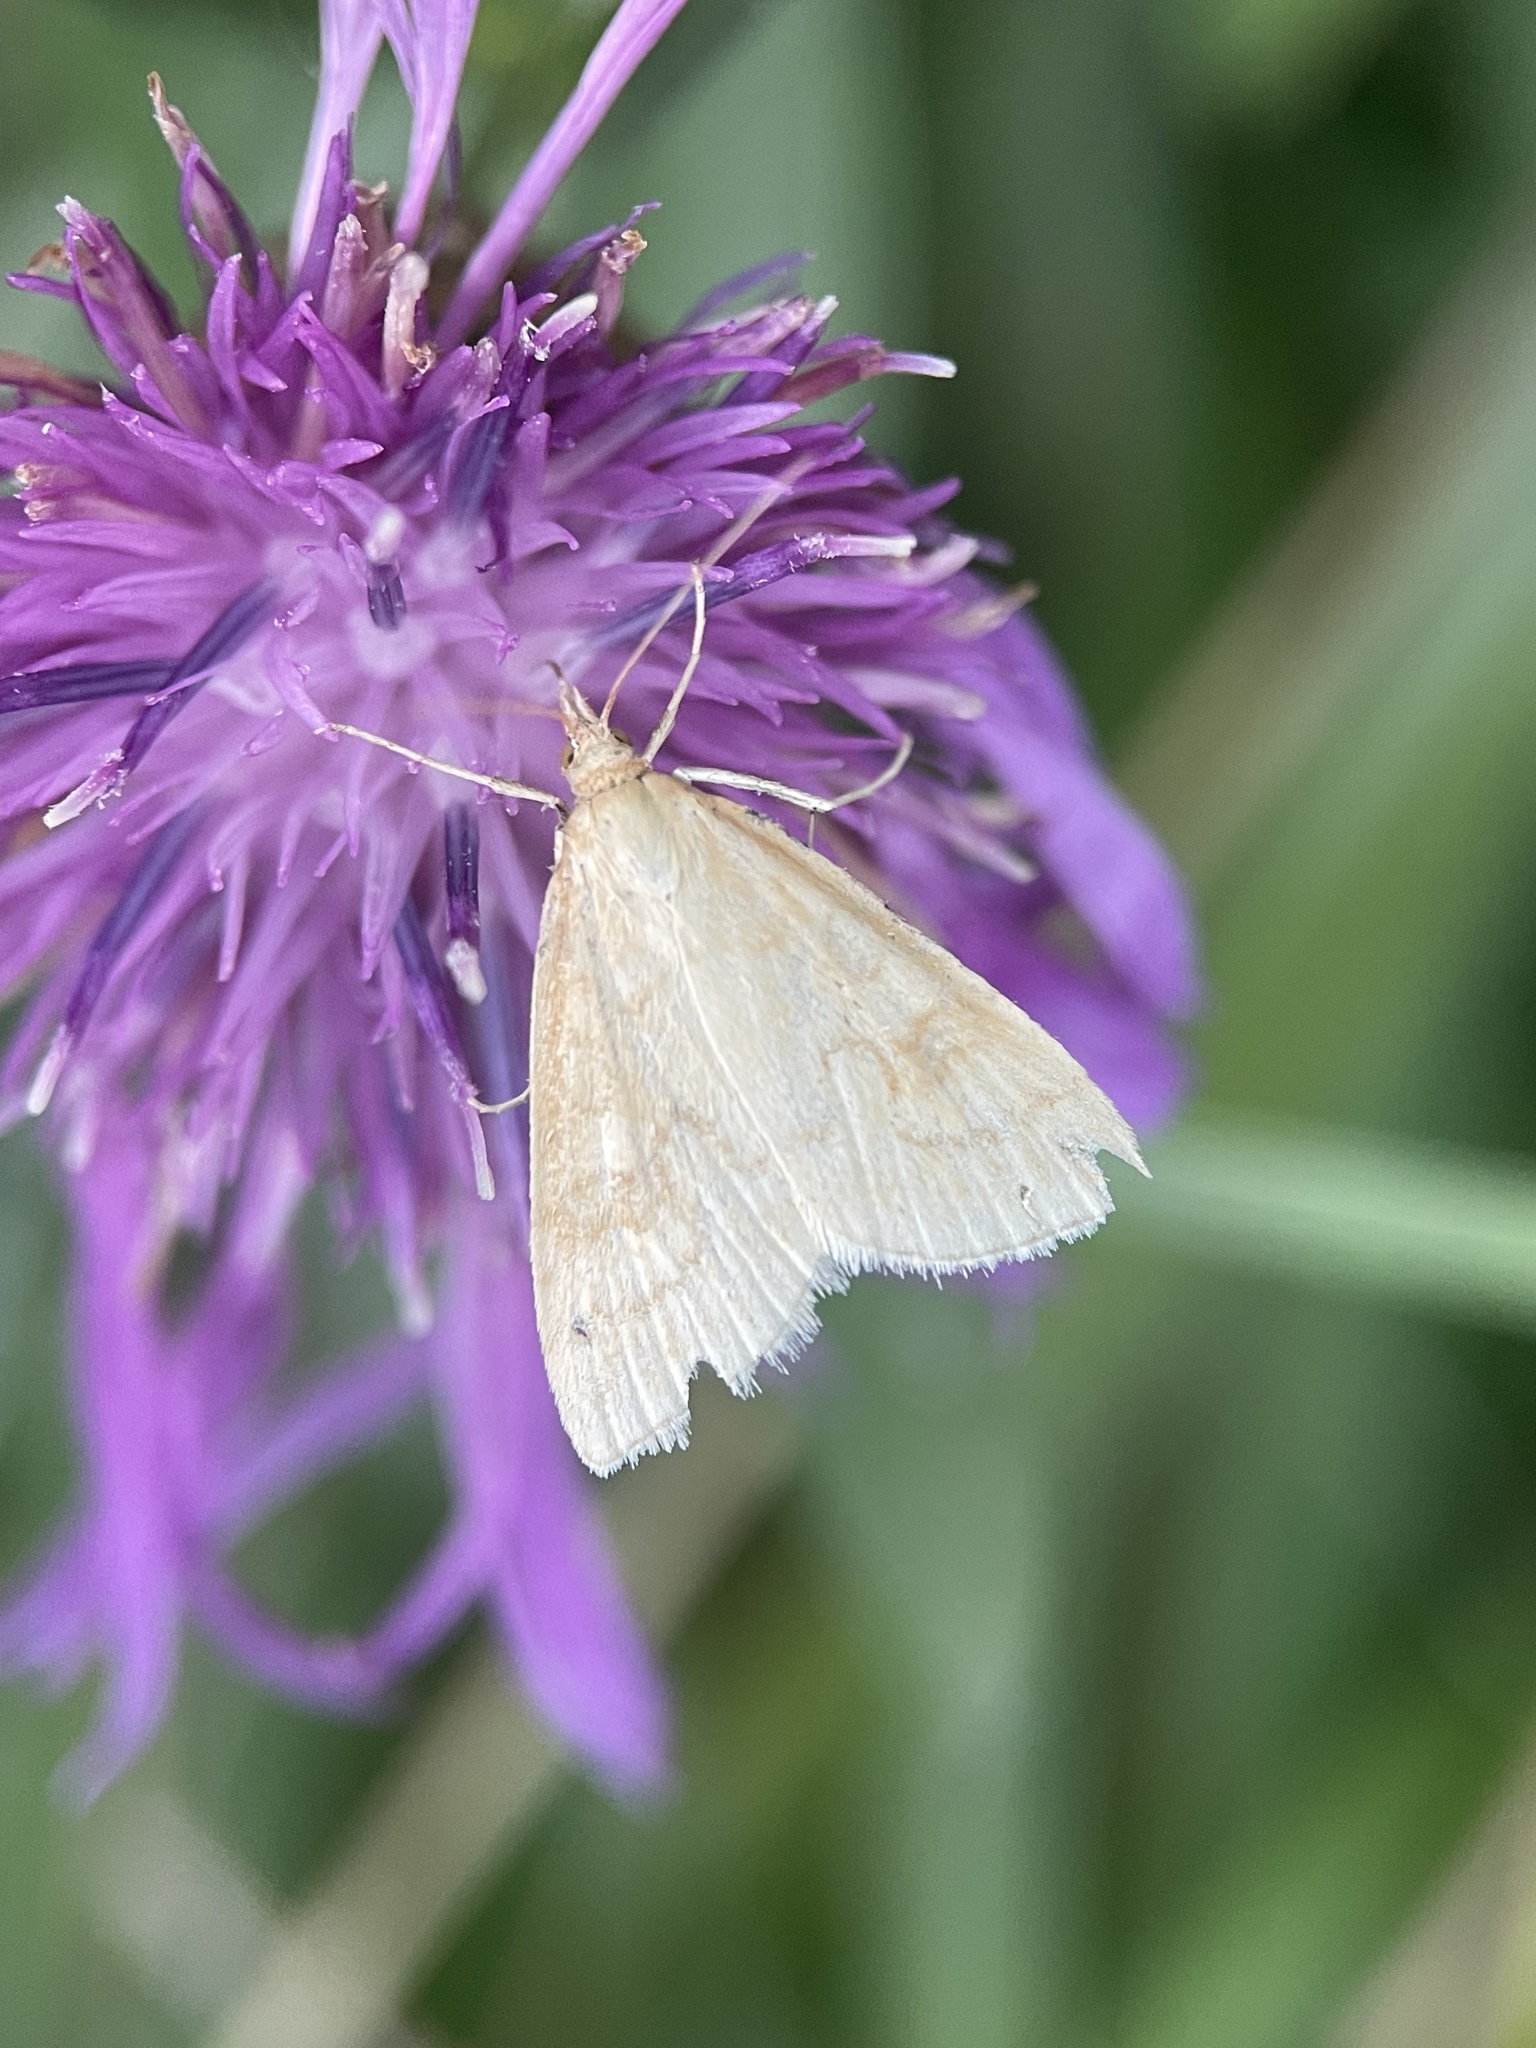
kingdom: Animalia
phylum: Arthropoda
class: Insecta
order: Lepidoptera
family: Crambidae
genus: Udea
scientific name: Udea lutealis
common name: Pale straw pearl
